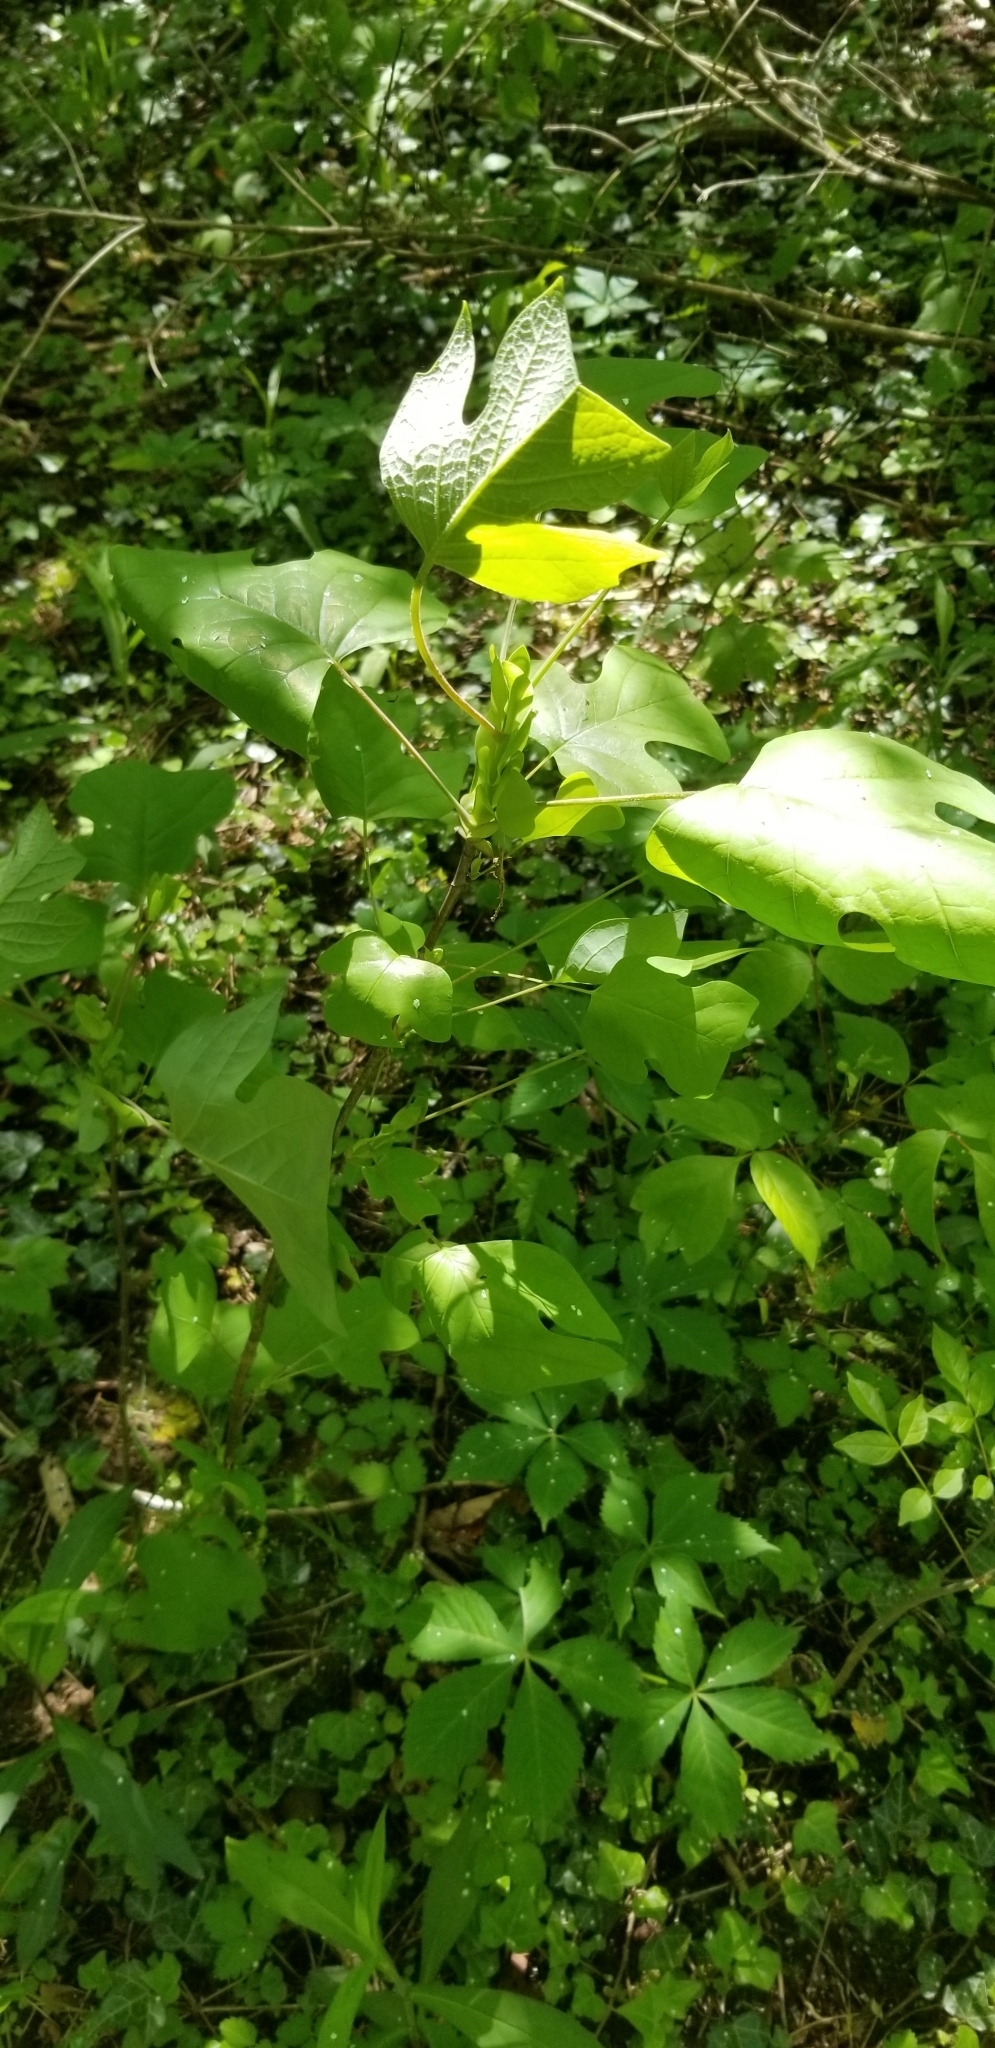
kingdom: Plantae
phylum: Tracheophyta
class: Magnoliopsida
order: Magnoliales
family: Magnoliaceae
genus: Liriodendron
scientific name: Liriodendron tulipifera
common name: Tulip tree
